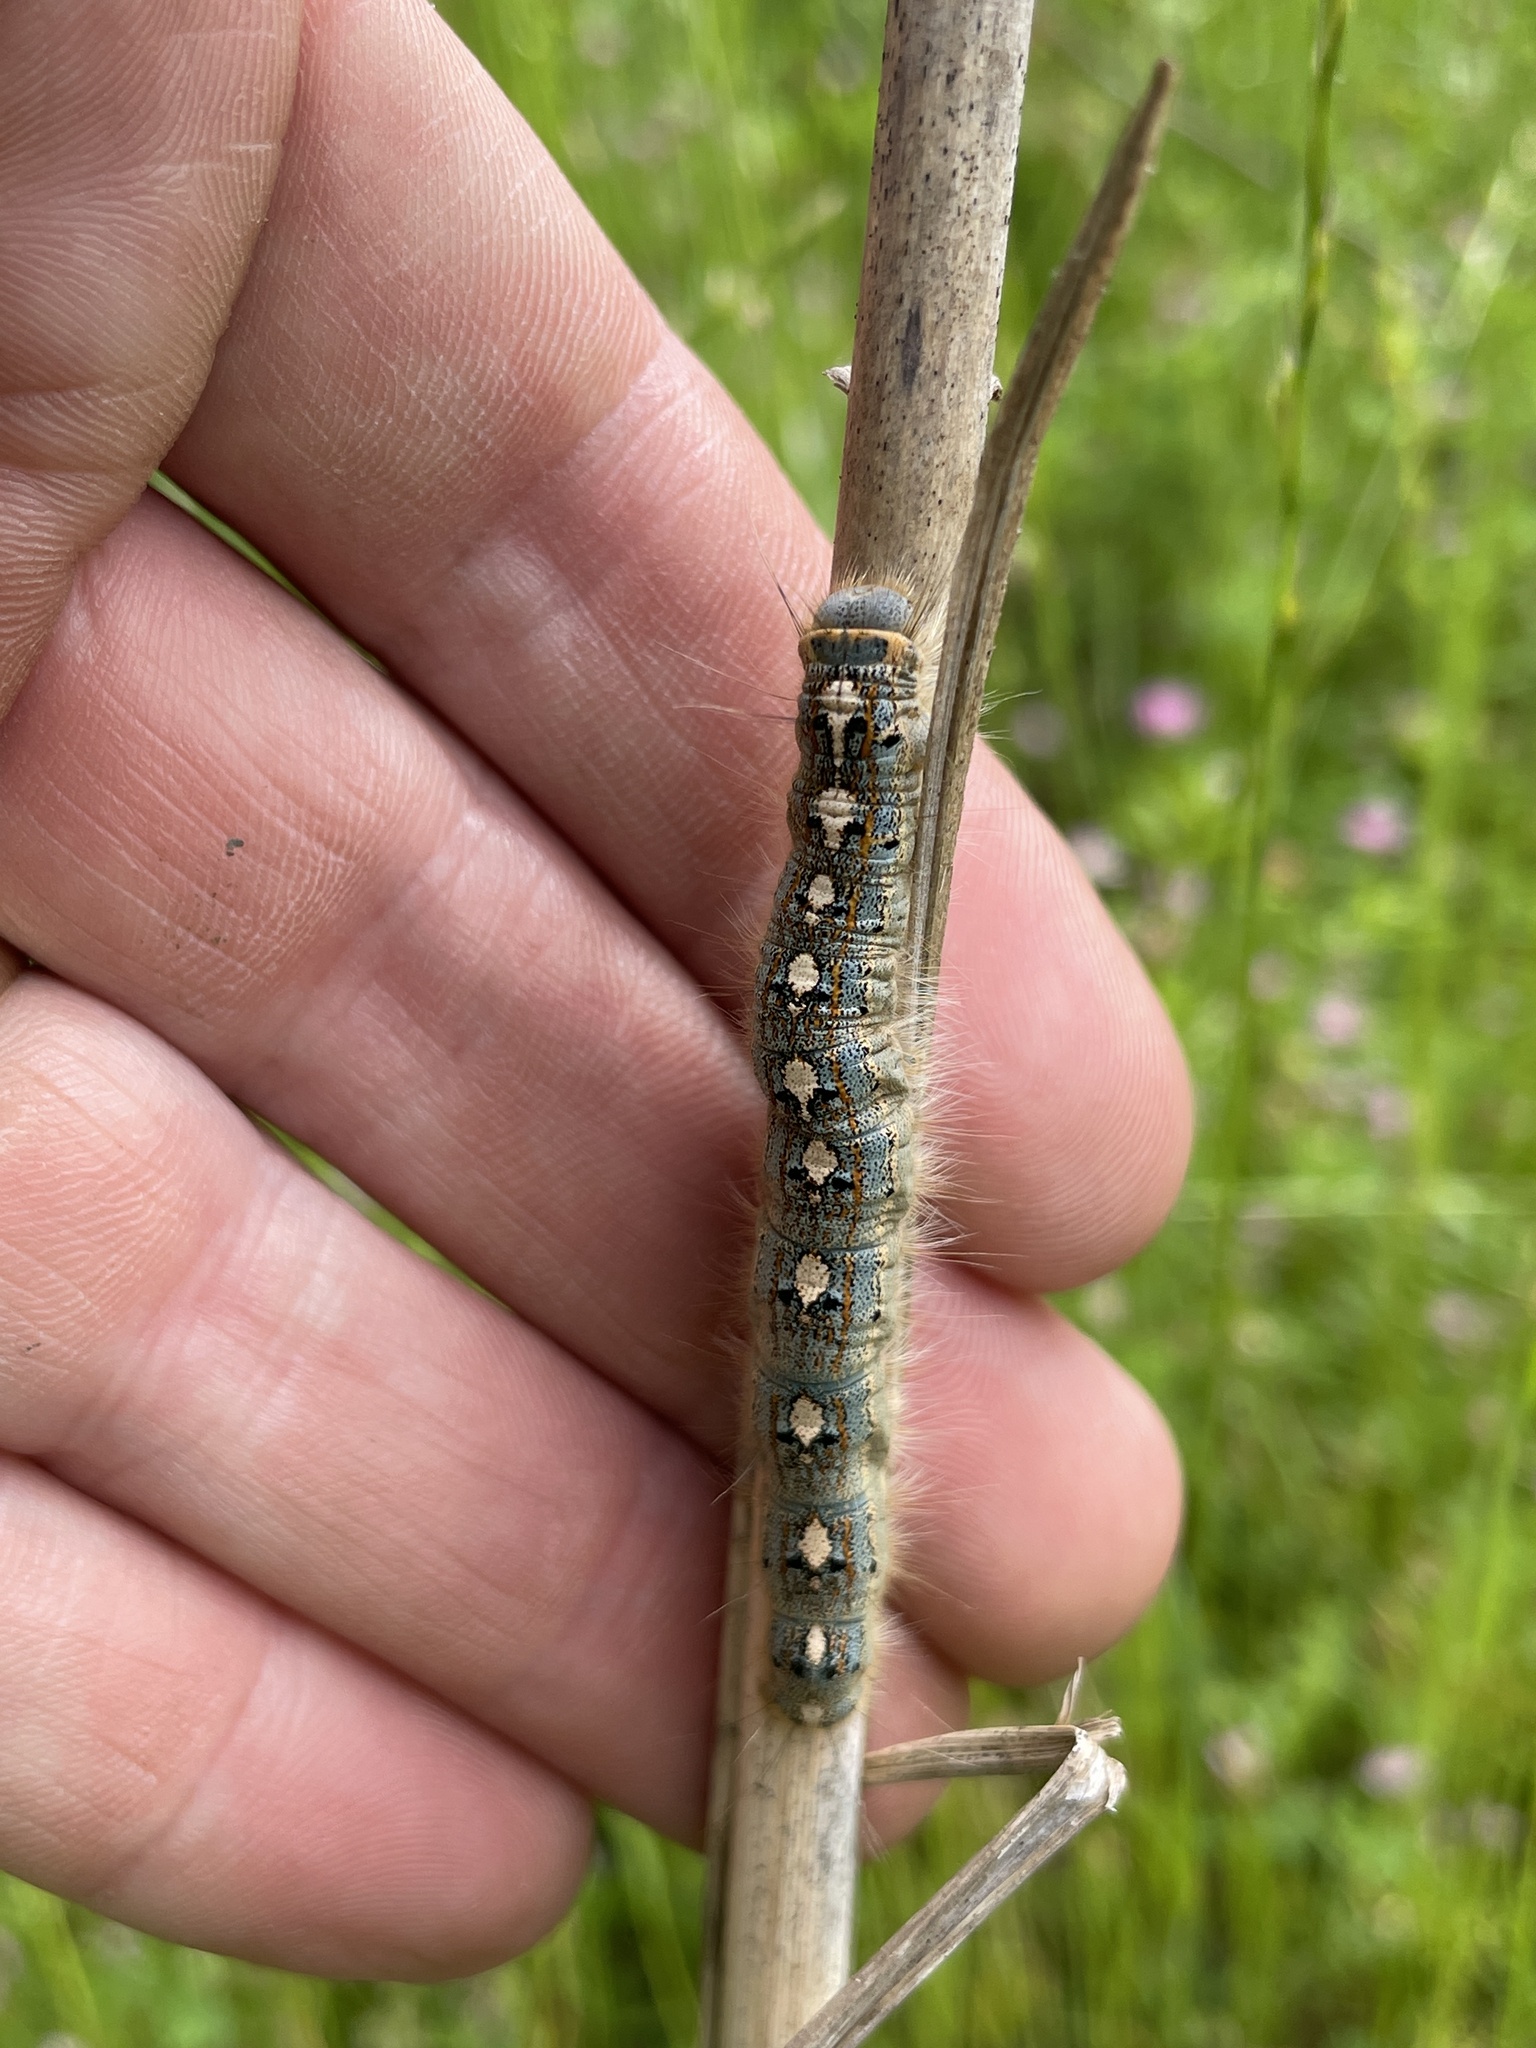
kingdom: Animalia
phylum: Arthropoda
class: Insecta
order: Lepidoptera
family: Lasiocampidae
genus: Malacosoma
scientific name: Malacosoma disstria
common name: Forest tent caterpillar
